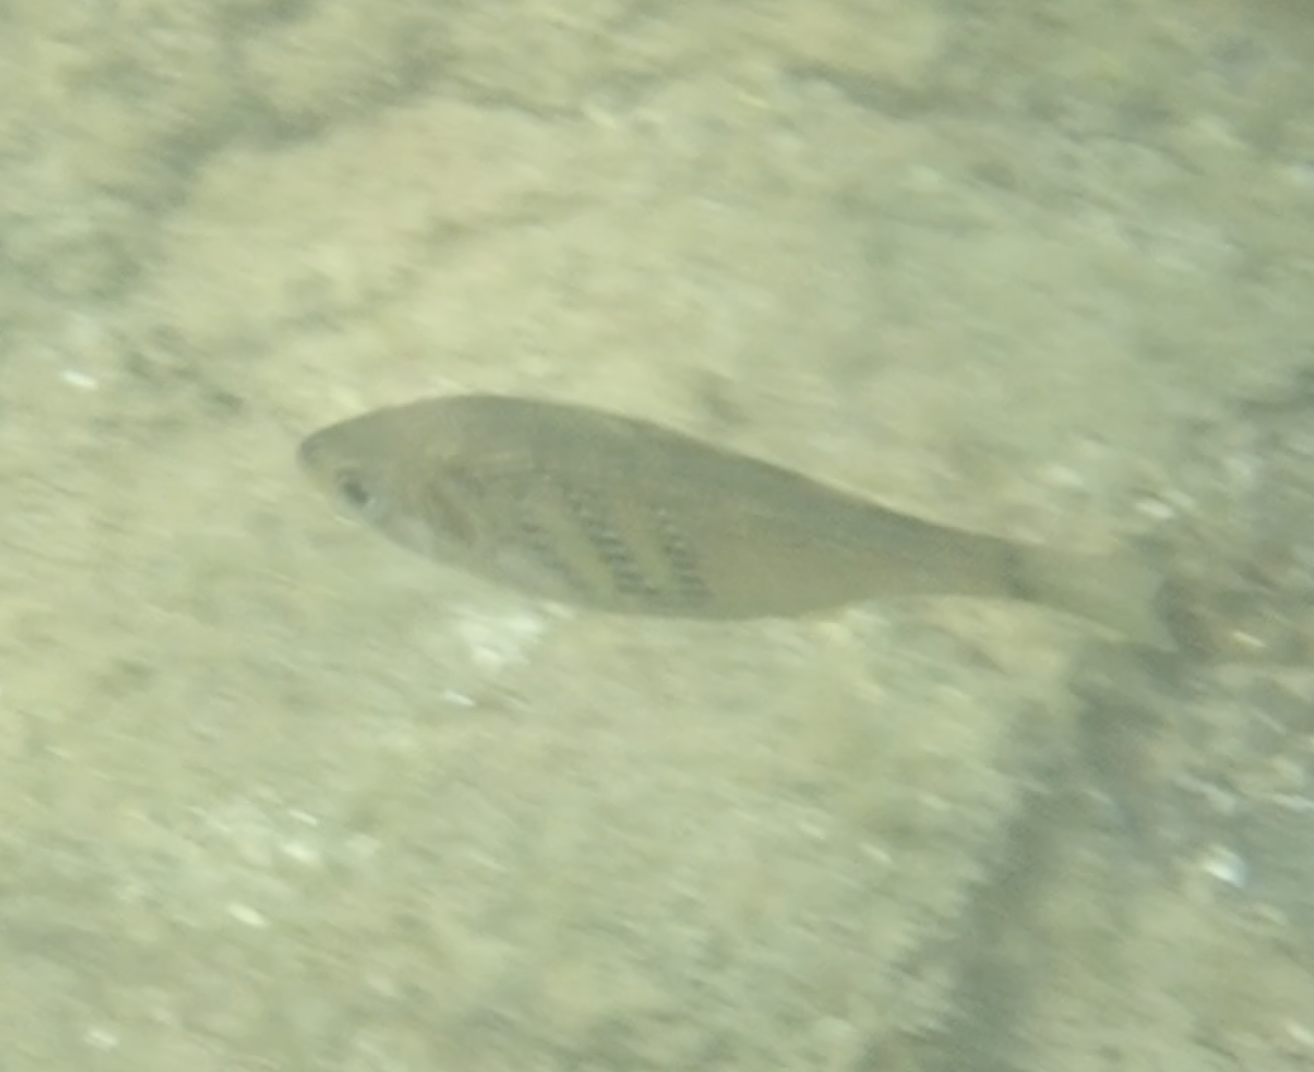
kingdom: Animalia
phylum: Chordata
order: Perciformes
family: Embiotocidae
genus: Cymatogaster
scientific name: Cymatogaster aggregata
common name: Shiner perch
